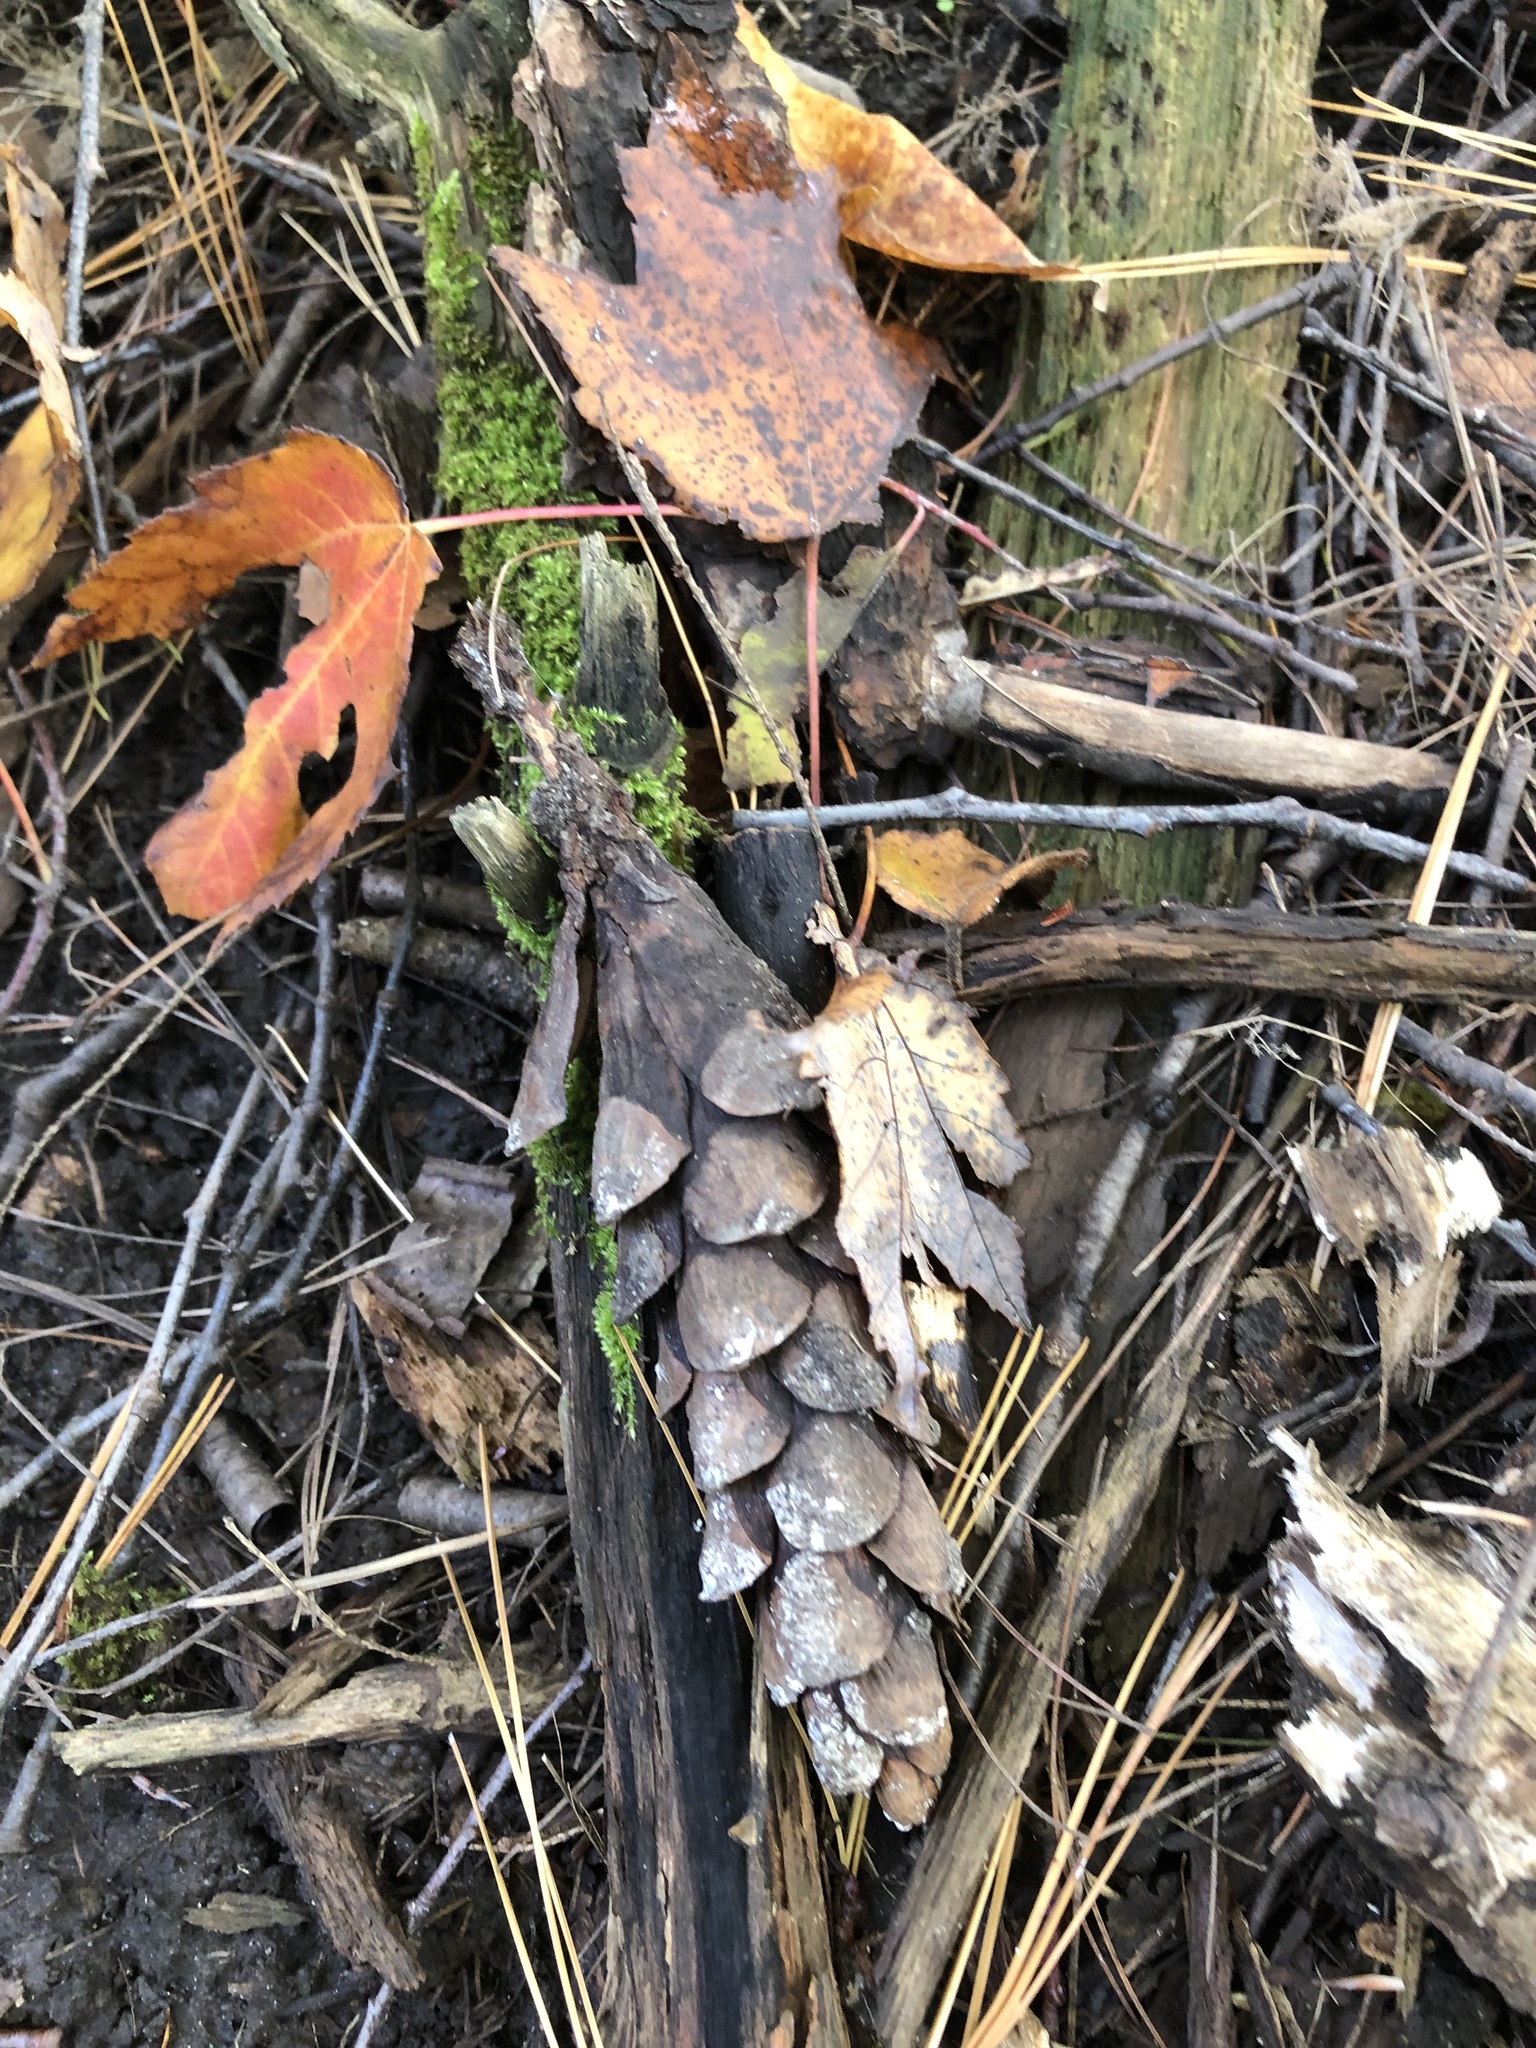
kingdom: Plantae
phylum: Tracheophyta
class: Pinopsida
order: Pinales
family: Pinaceae
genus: Pinus
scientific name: Pinus strobus
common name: Weymouth pine
